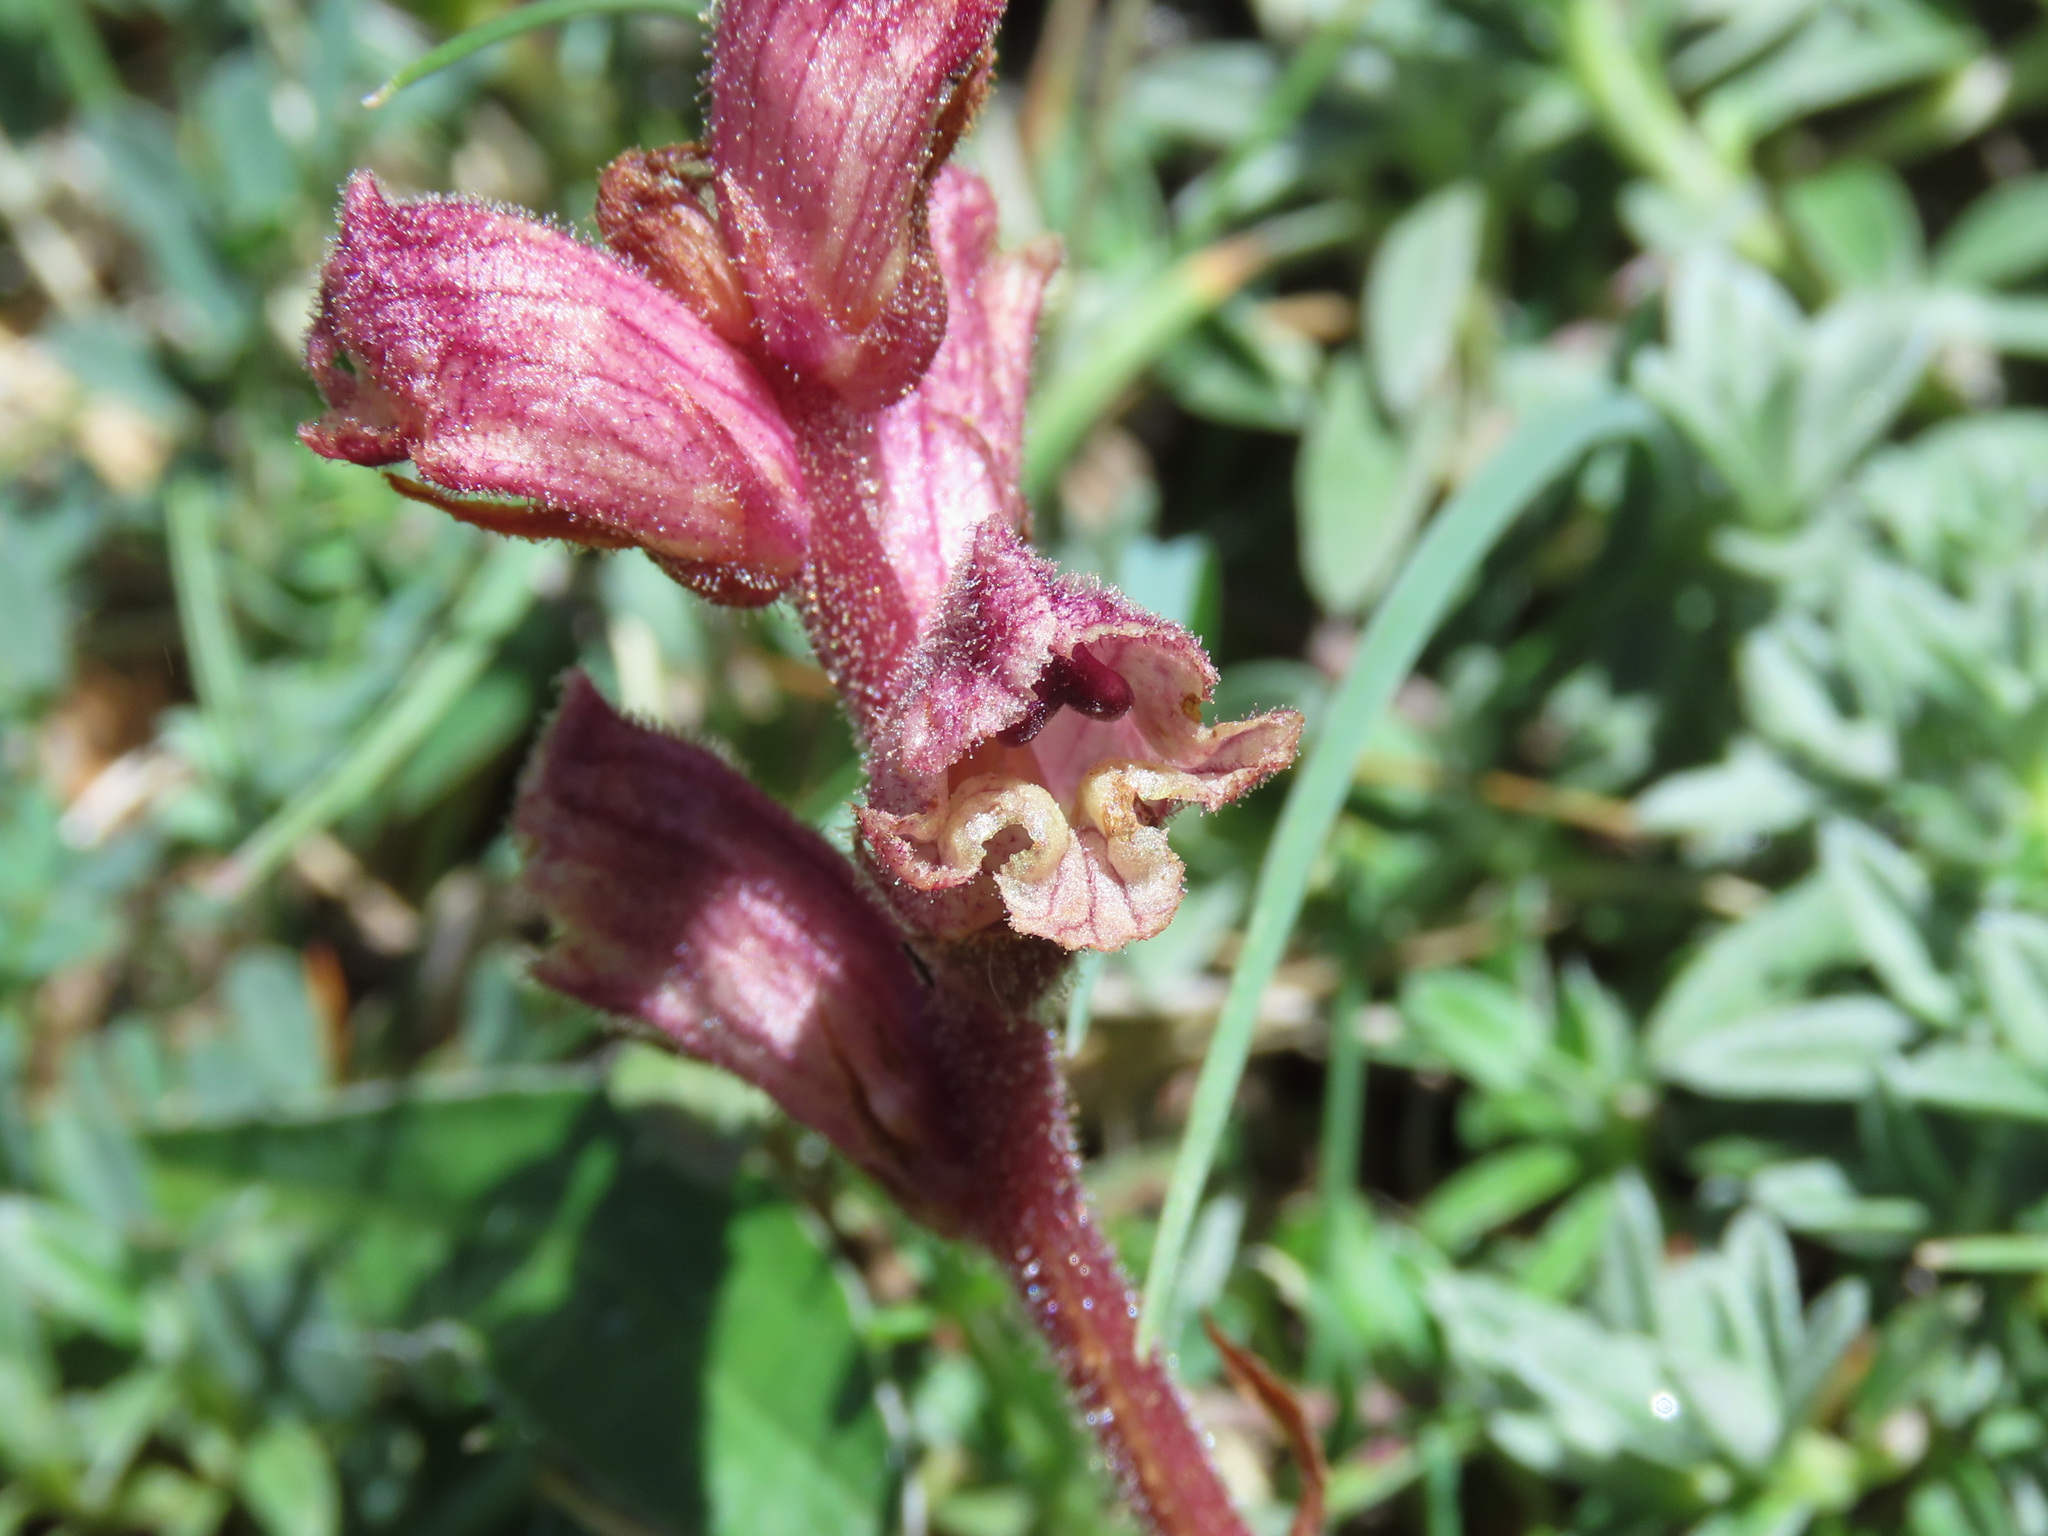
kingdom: Plantae
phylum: Tracheophyta
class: Magnoliopsida
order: Lamiales
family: Orobanchaceae
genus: Orobanche
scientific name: Orobanche alba
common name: Thyme broomrape
